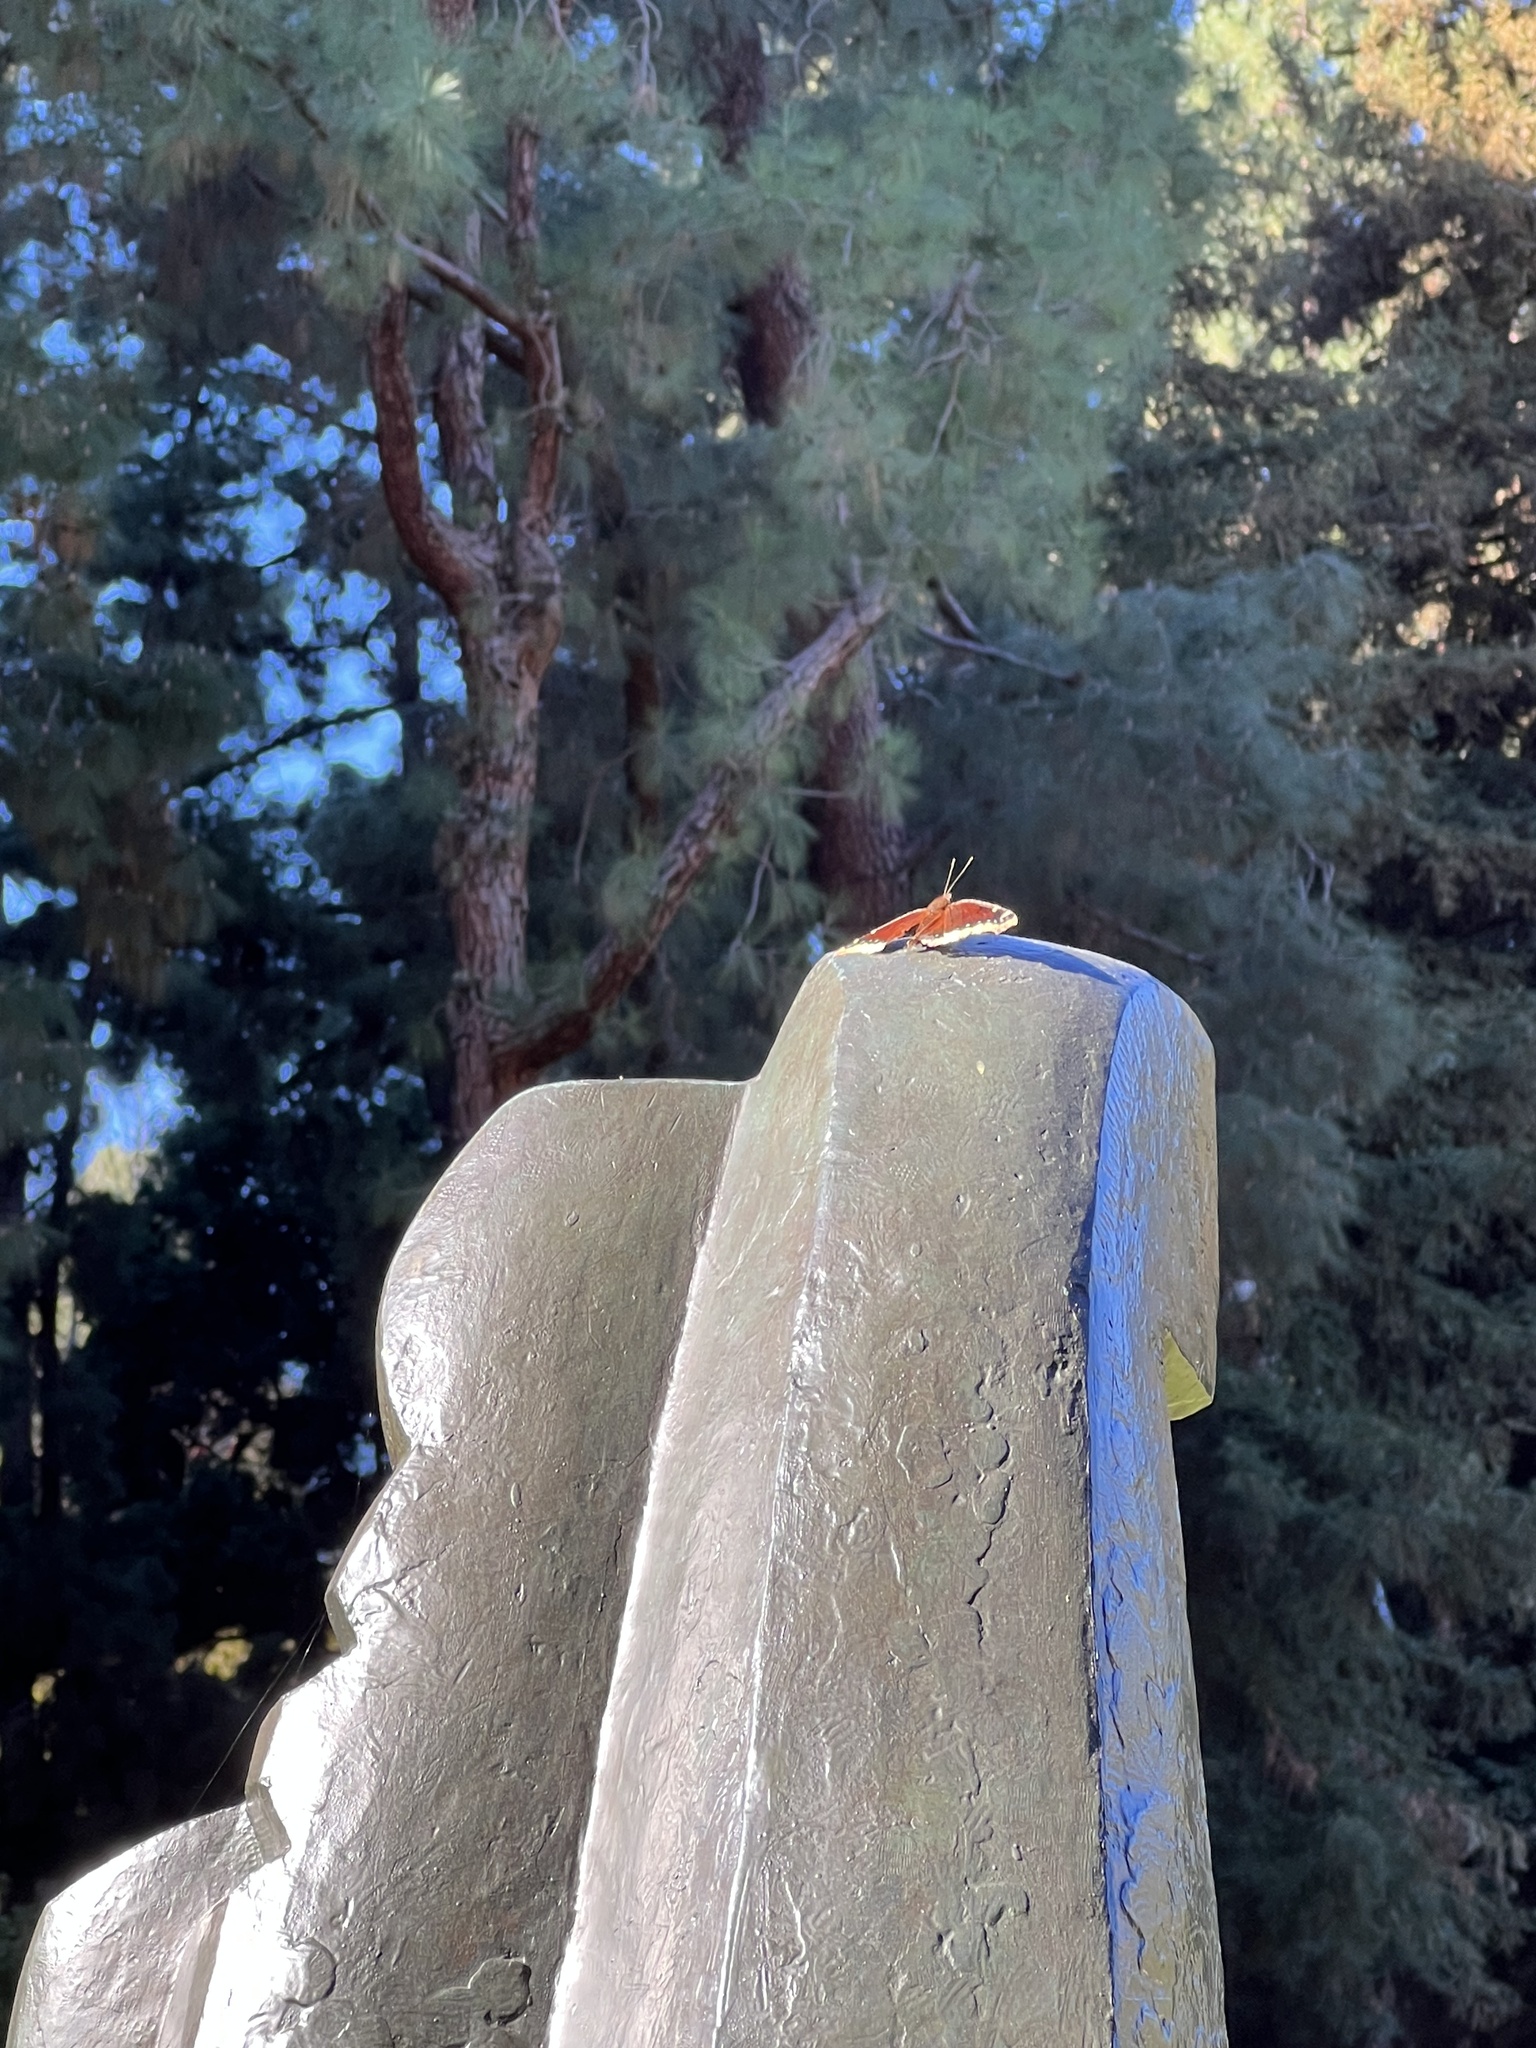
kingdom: Animalia
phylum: Arthropoda
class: Insecta
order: Lepidoptera
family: Nymphalidae
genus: Nymphalis
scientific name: Nymphalis antiopa
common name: Camberwell beauty
